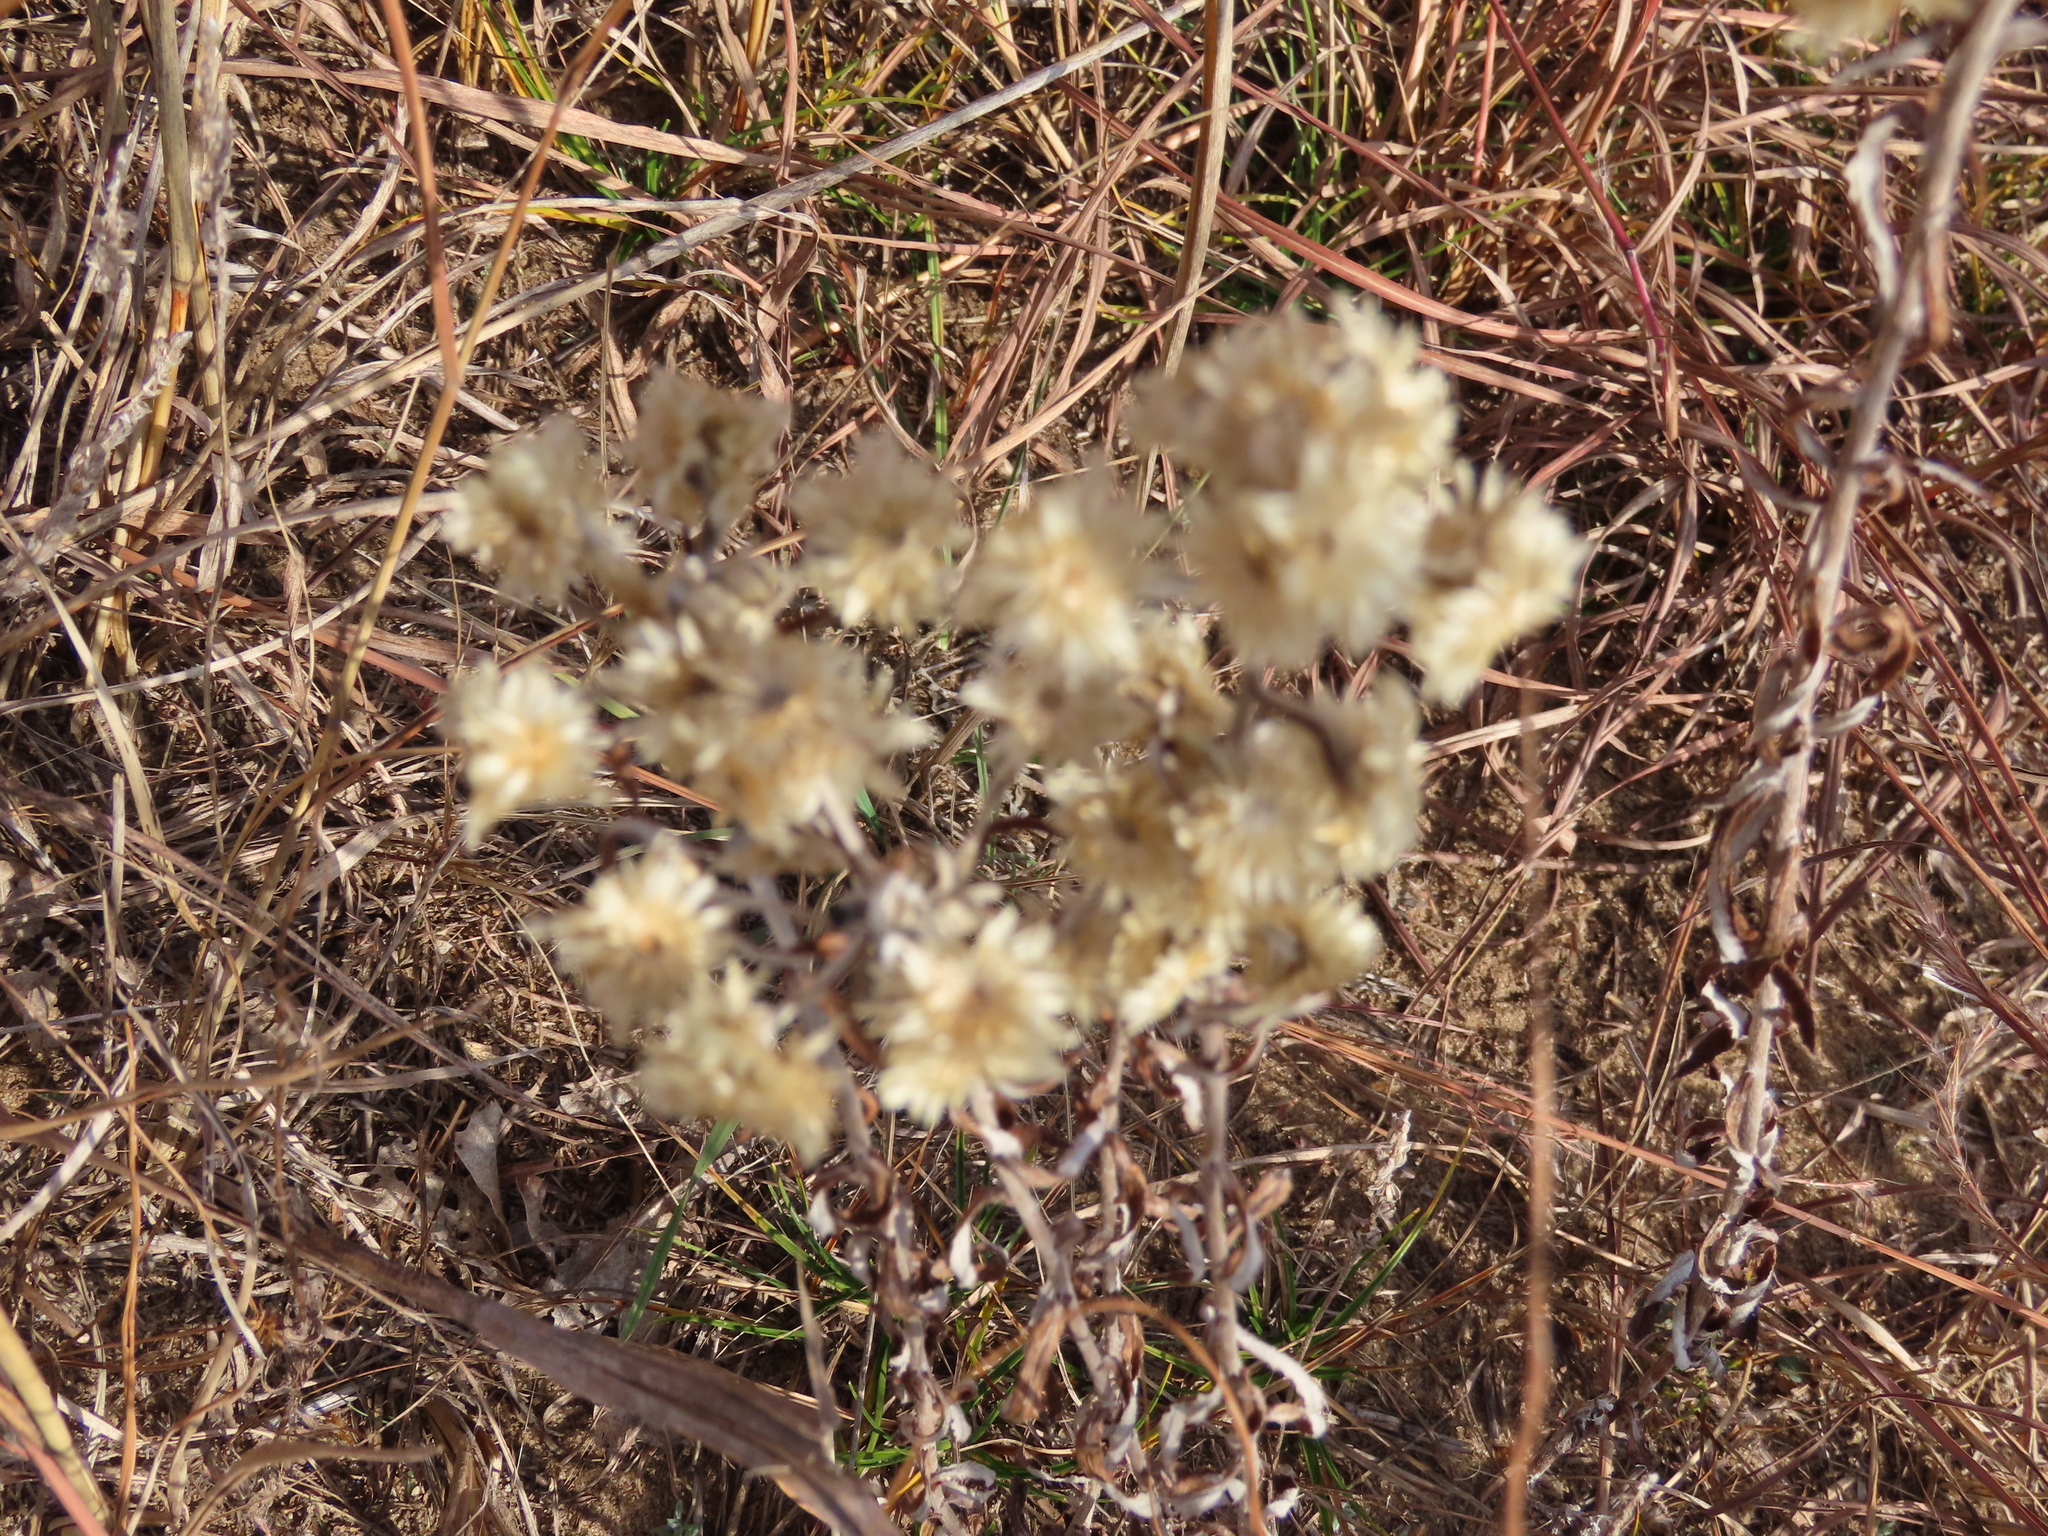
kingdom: Plantae
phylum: Tracheophyta
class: Magnoliopsida
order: Asterales
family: Asteraceae
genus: Pseudognaphalium
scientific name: Pseudognaphalium obtusifolium
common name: Eastern rabbit-tobacco
